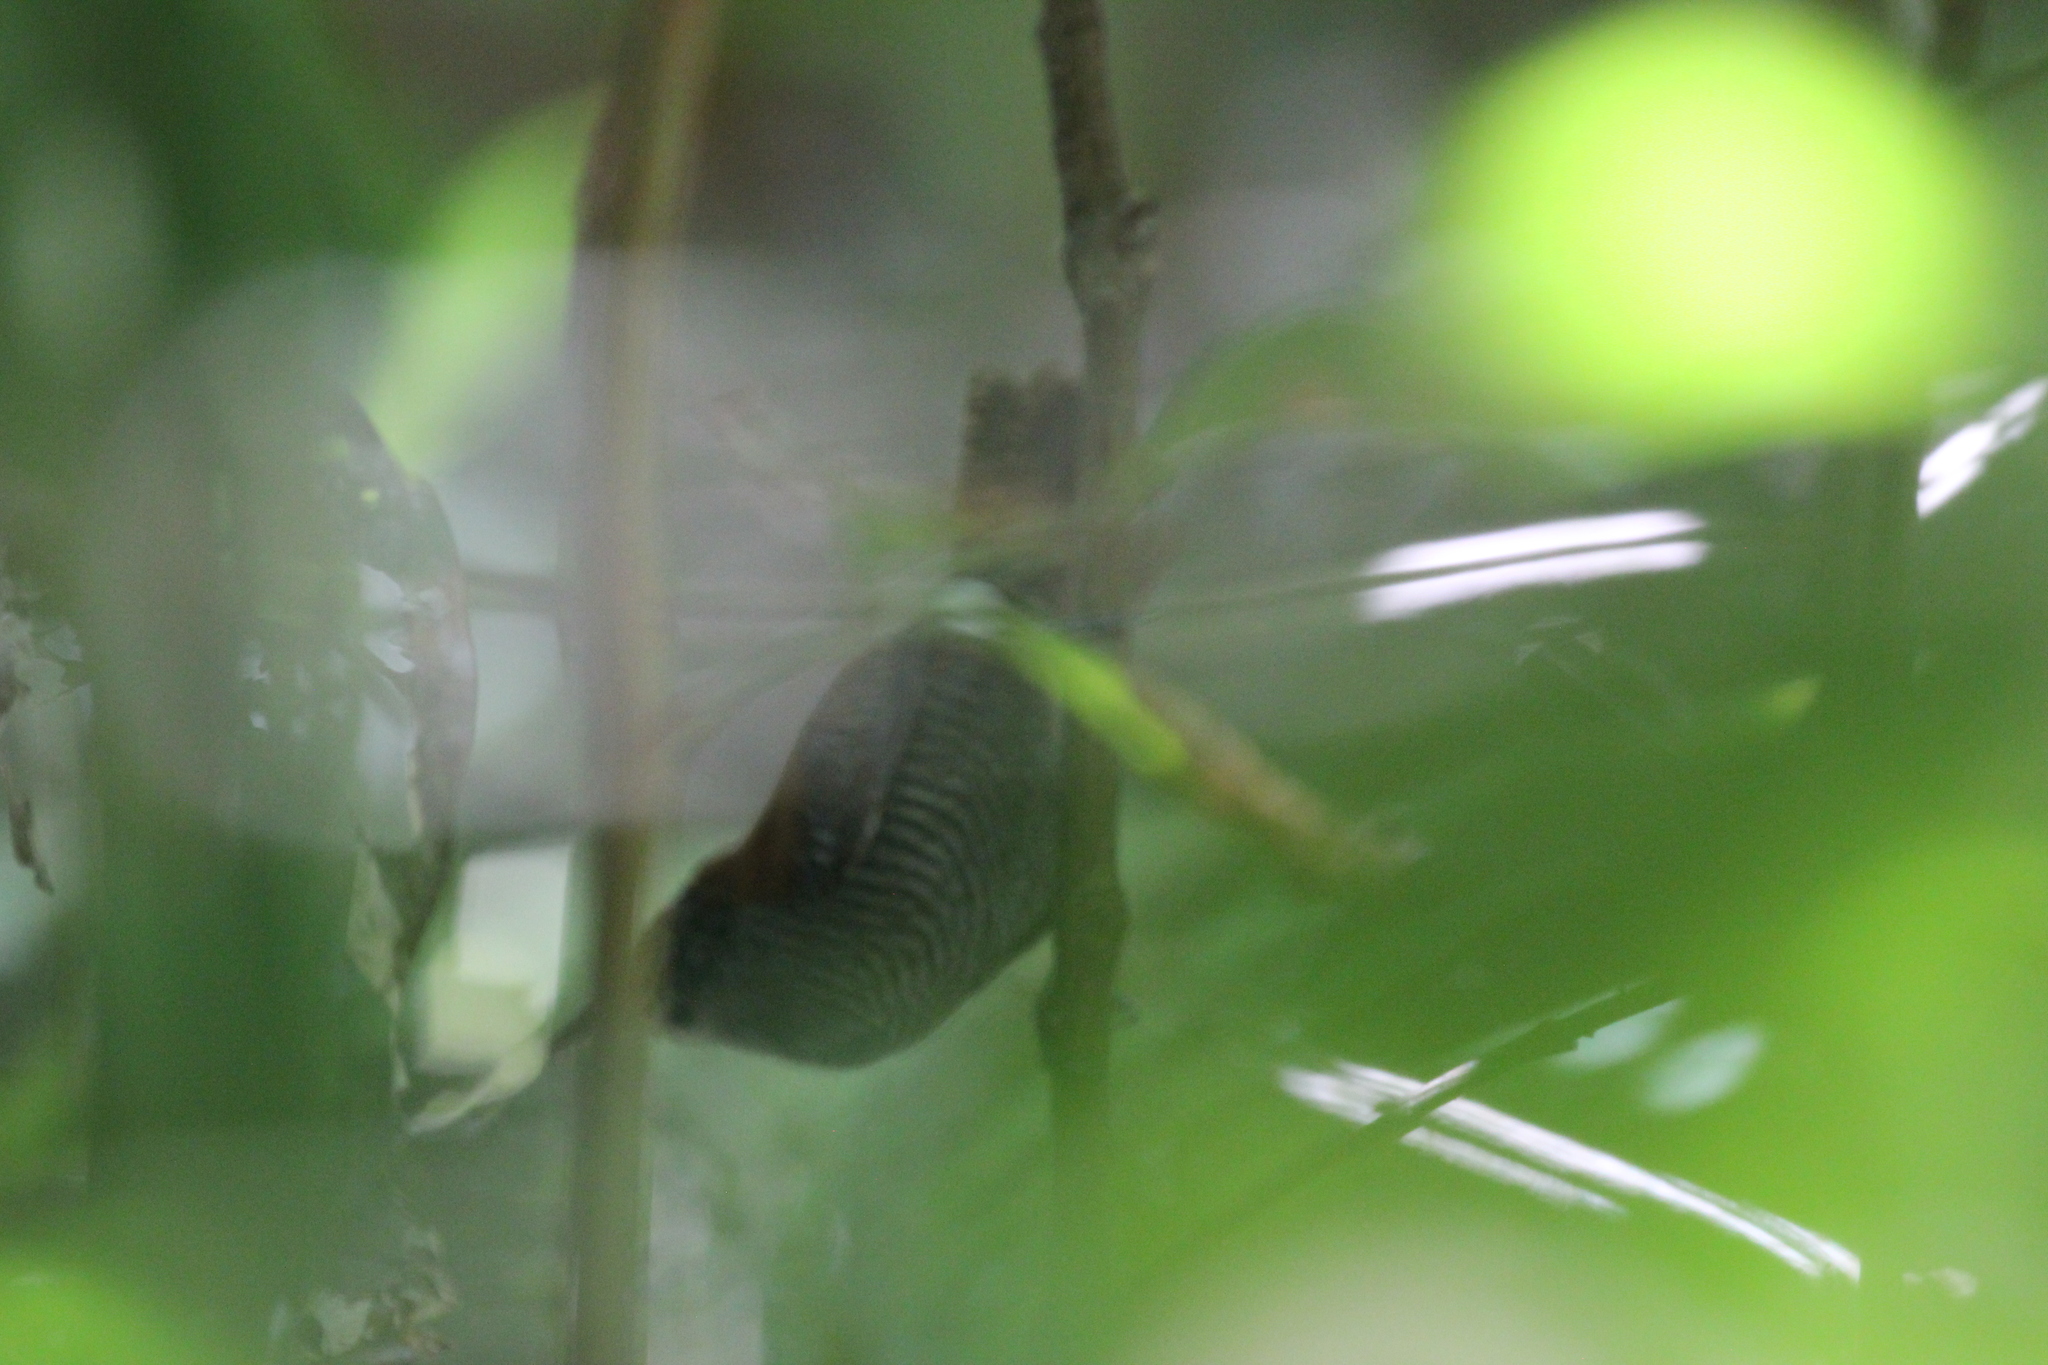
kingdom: Animalia
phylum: Chordata
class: Aves
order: Passeriformes
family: Troglodytidae
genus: Cantorchilus
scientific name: Cantorchilus semibadius
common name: Riverside wren
